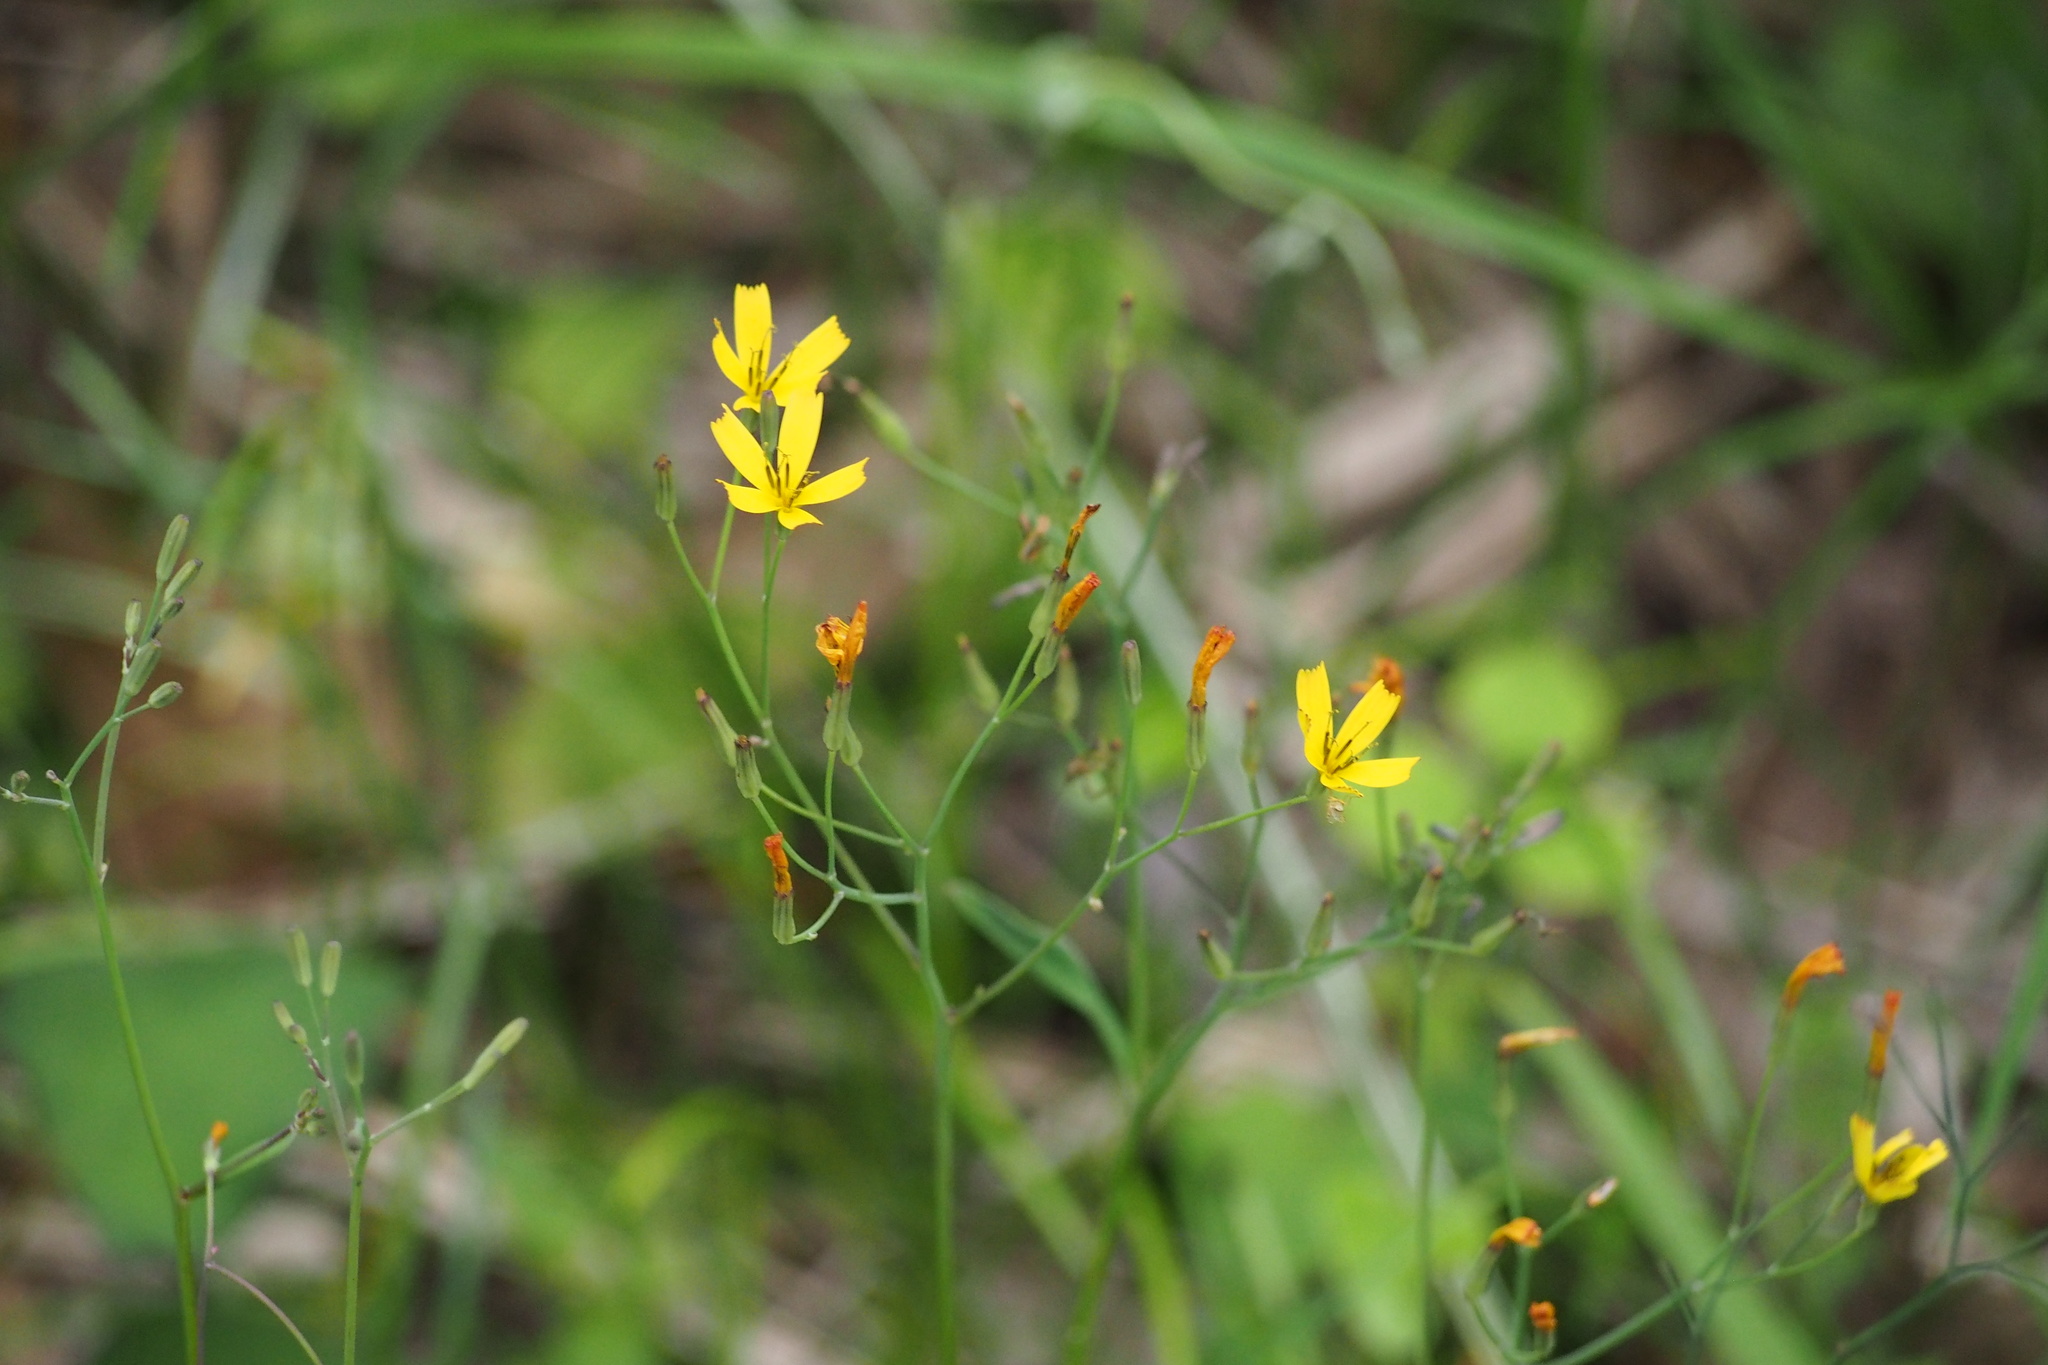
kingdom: Plantae
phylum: Tracheophyta
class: Magnoliopsida
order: Asterales
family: Asteraceae
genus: Ixeridium
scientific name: Ixeridium dentatum
